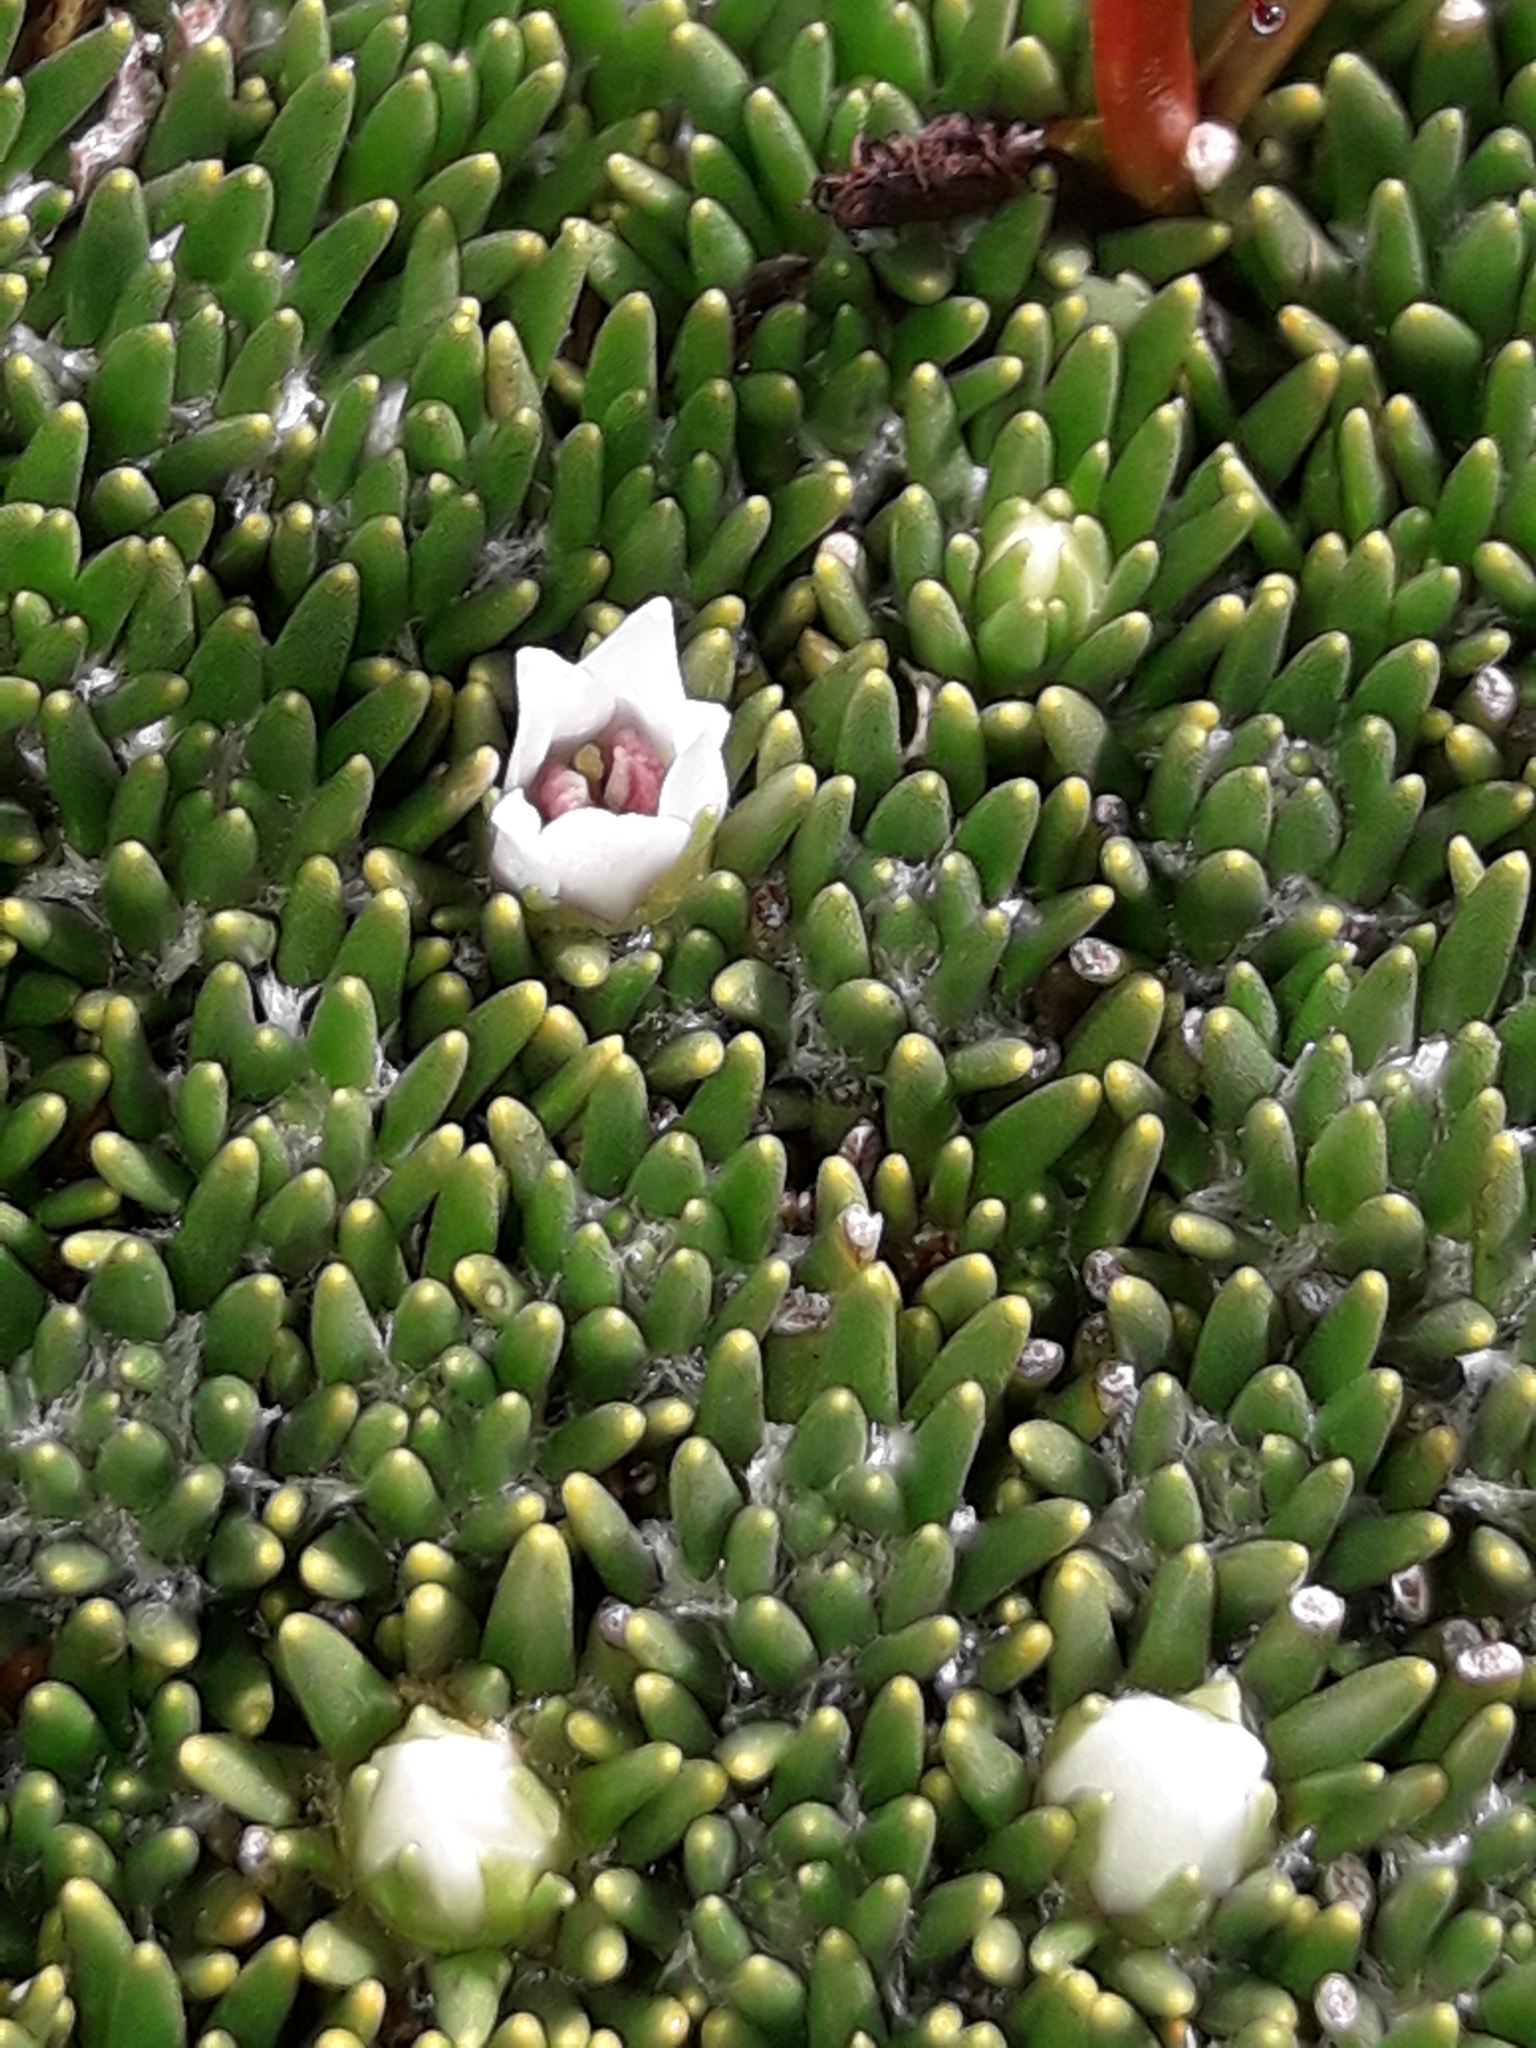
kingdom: Plantae
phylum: Tracheophyta
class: Magnoliopsida
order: Asterales
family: Stylidiaceae
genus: Donatia
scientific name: Donatia novae-zelandiae
